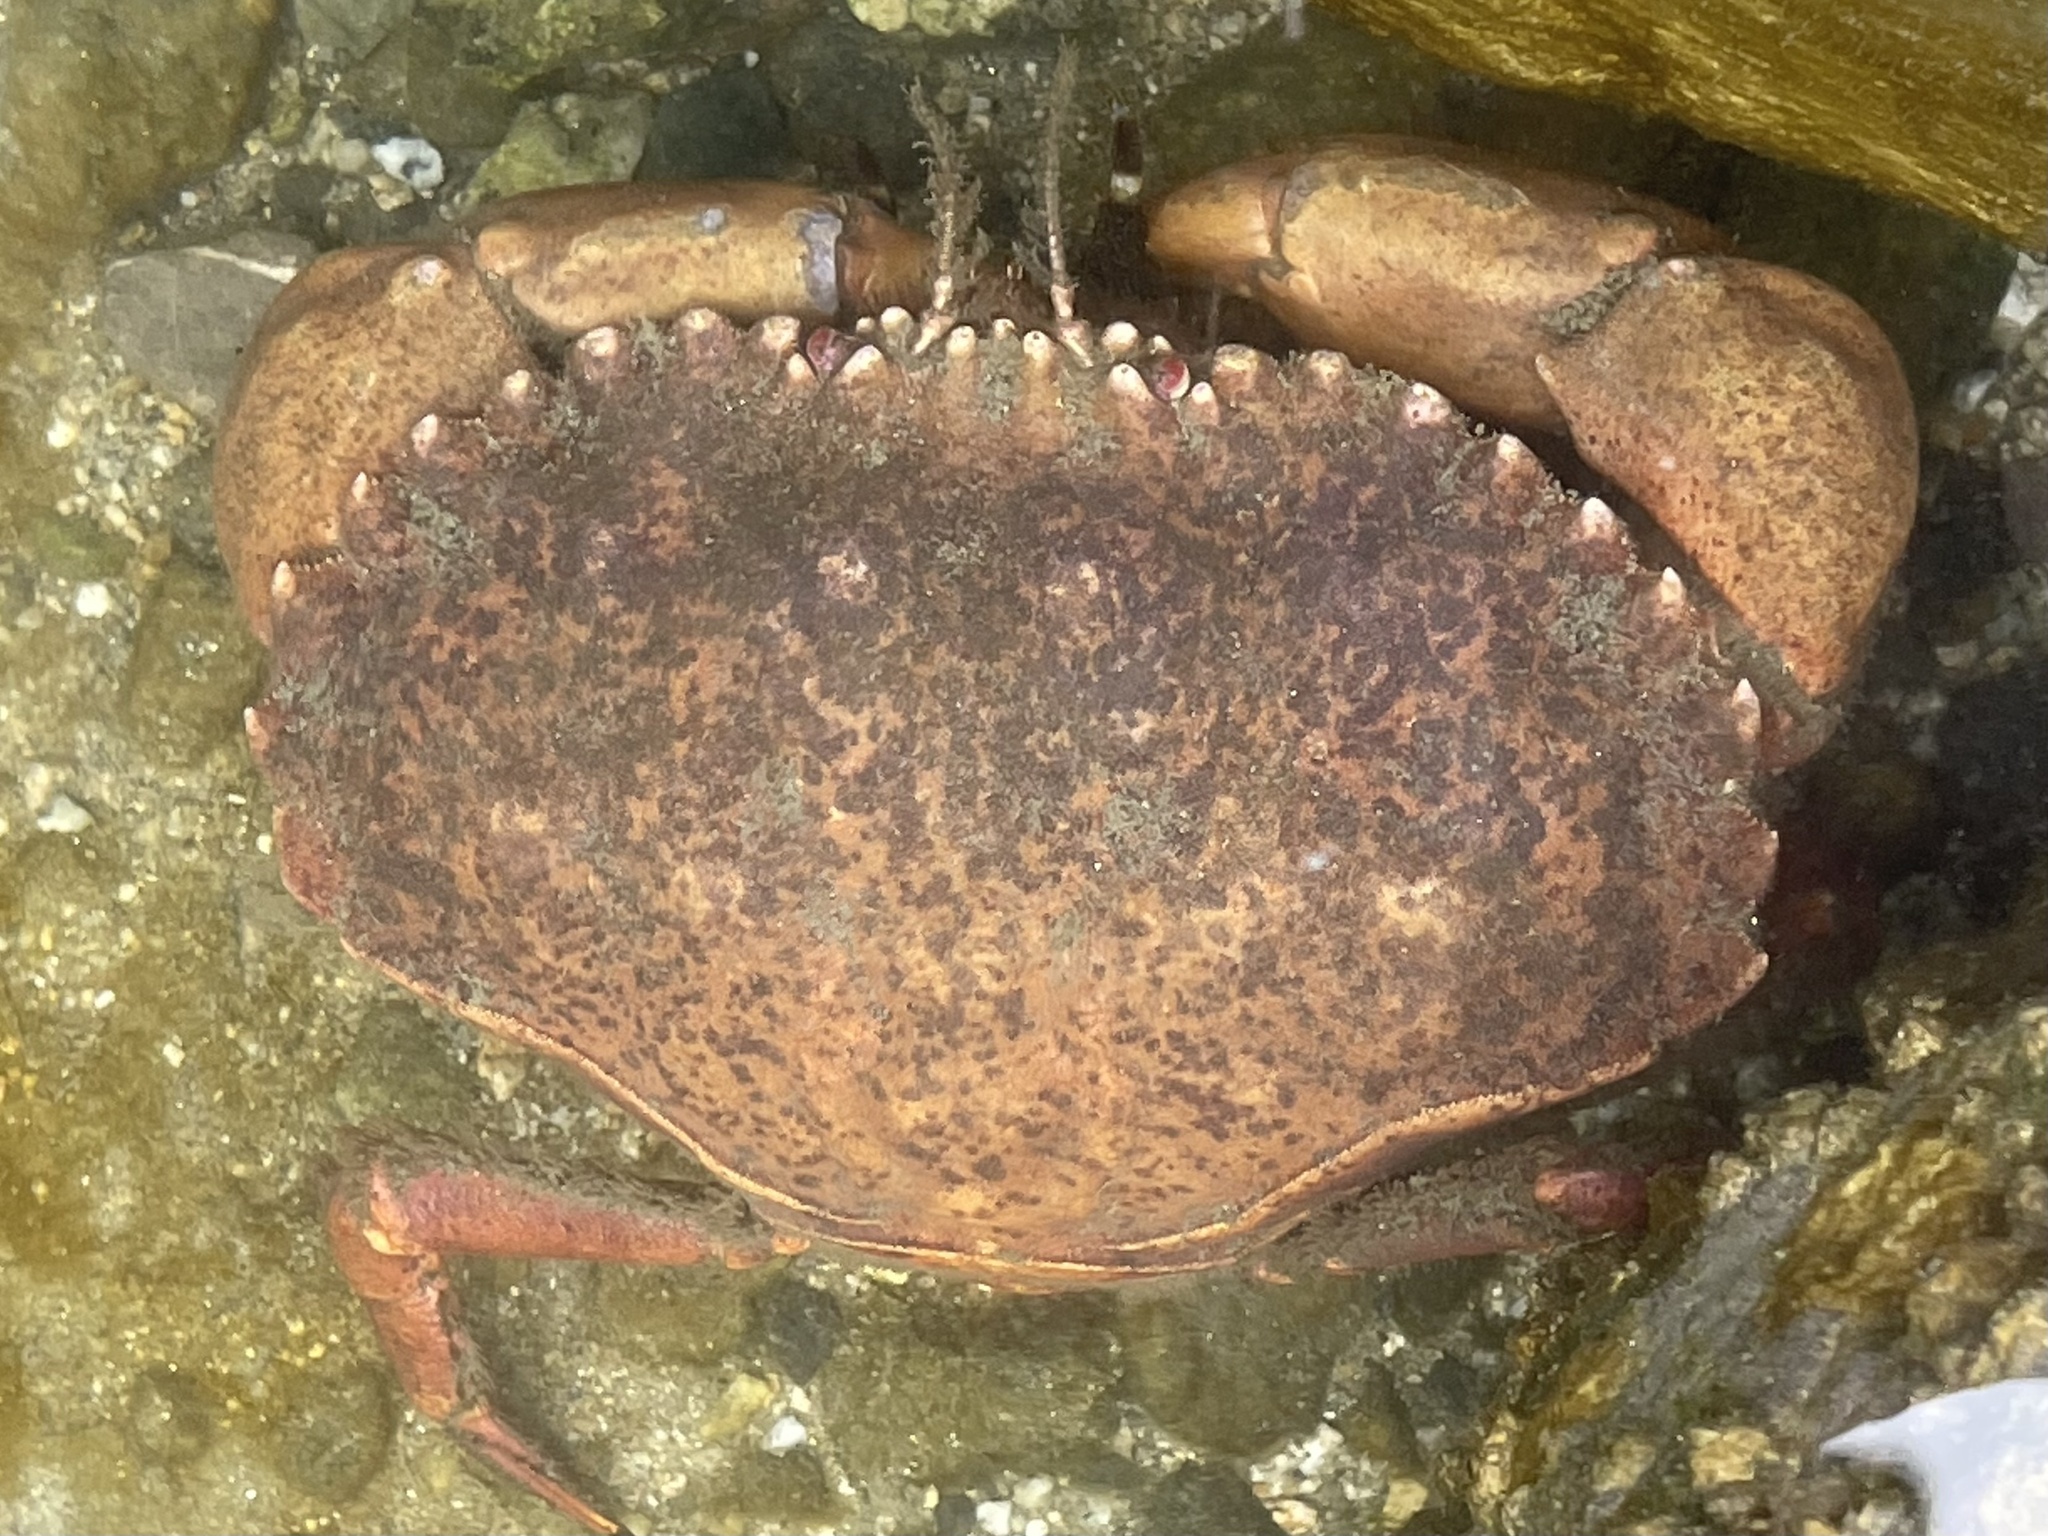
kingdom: Animalia
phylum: Arthropoda
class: Malacostraca
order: Decapoda
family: Cancridae
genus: Romaleon
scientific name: Romaleon antennarium
